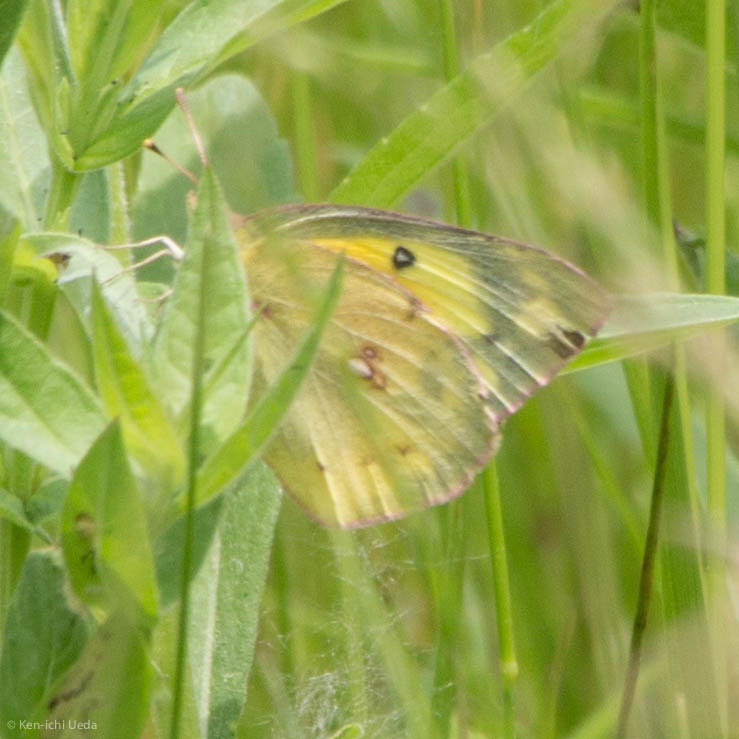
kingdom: Animalia
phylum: Arthropoda
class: Insecta
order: Lepidoptera
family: Pieridae
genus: Colias
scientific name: Colias eurytheme
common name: Alfalfa butterfly
